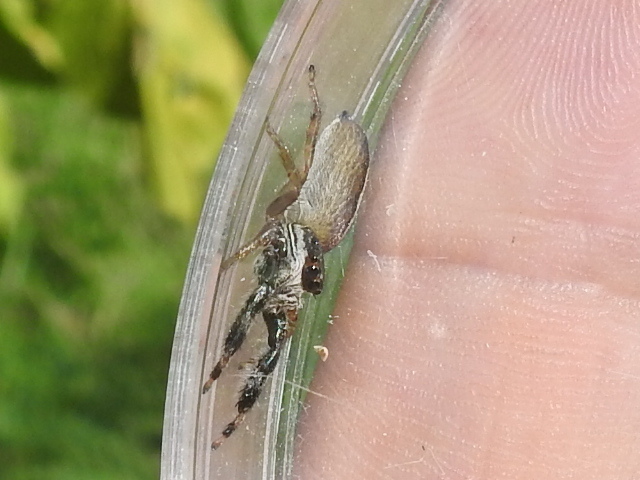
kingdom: Animalia
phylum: Arthropoda
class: Arachnida
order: Araneae
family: Salticidae
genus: Marpissa
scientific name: Marpissa formosa
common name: Short-bellied slender jumping spider
